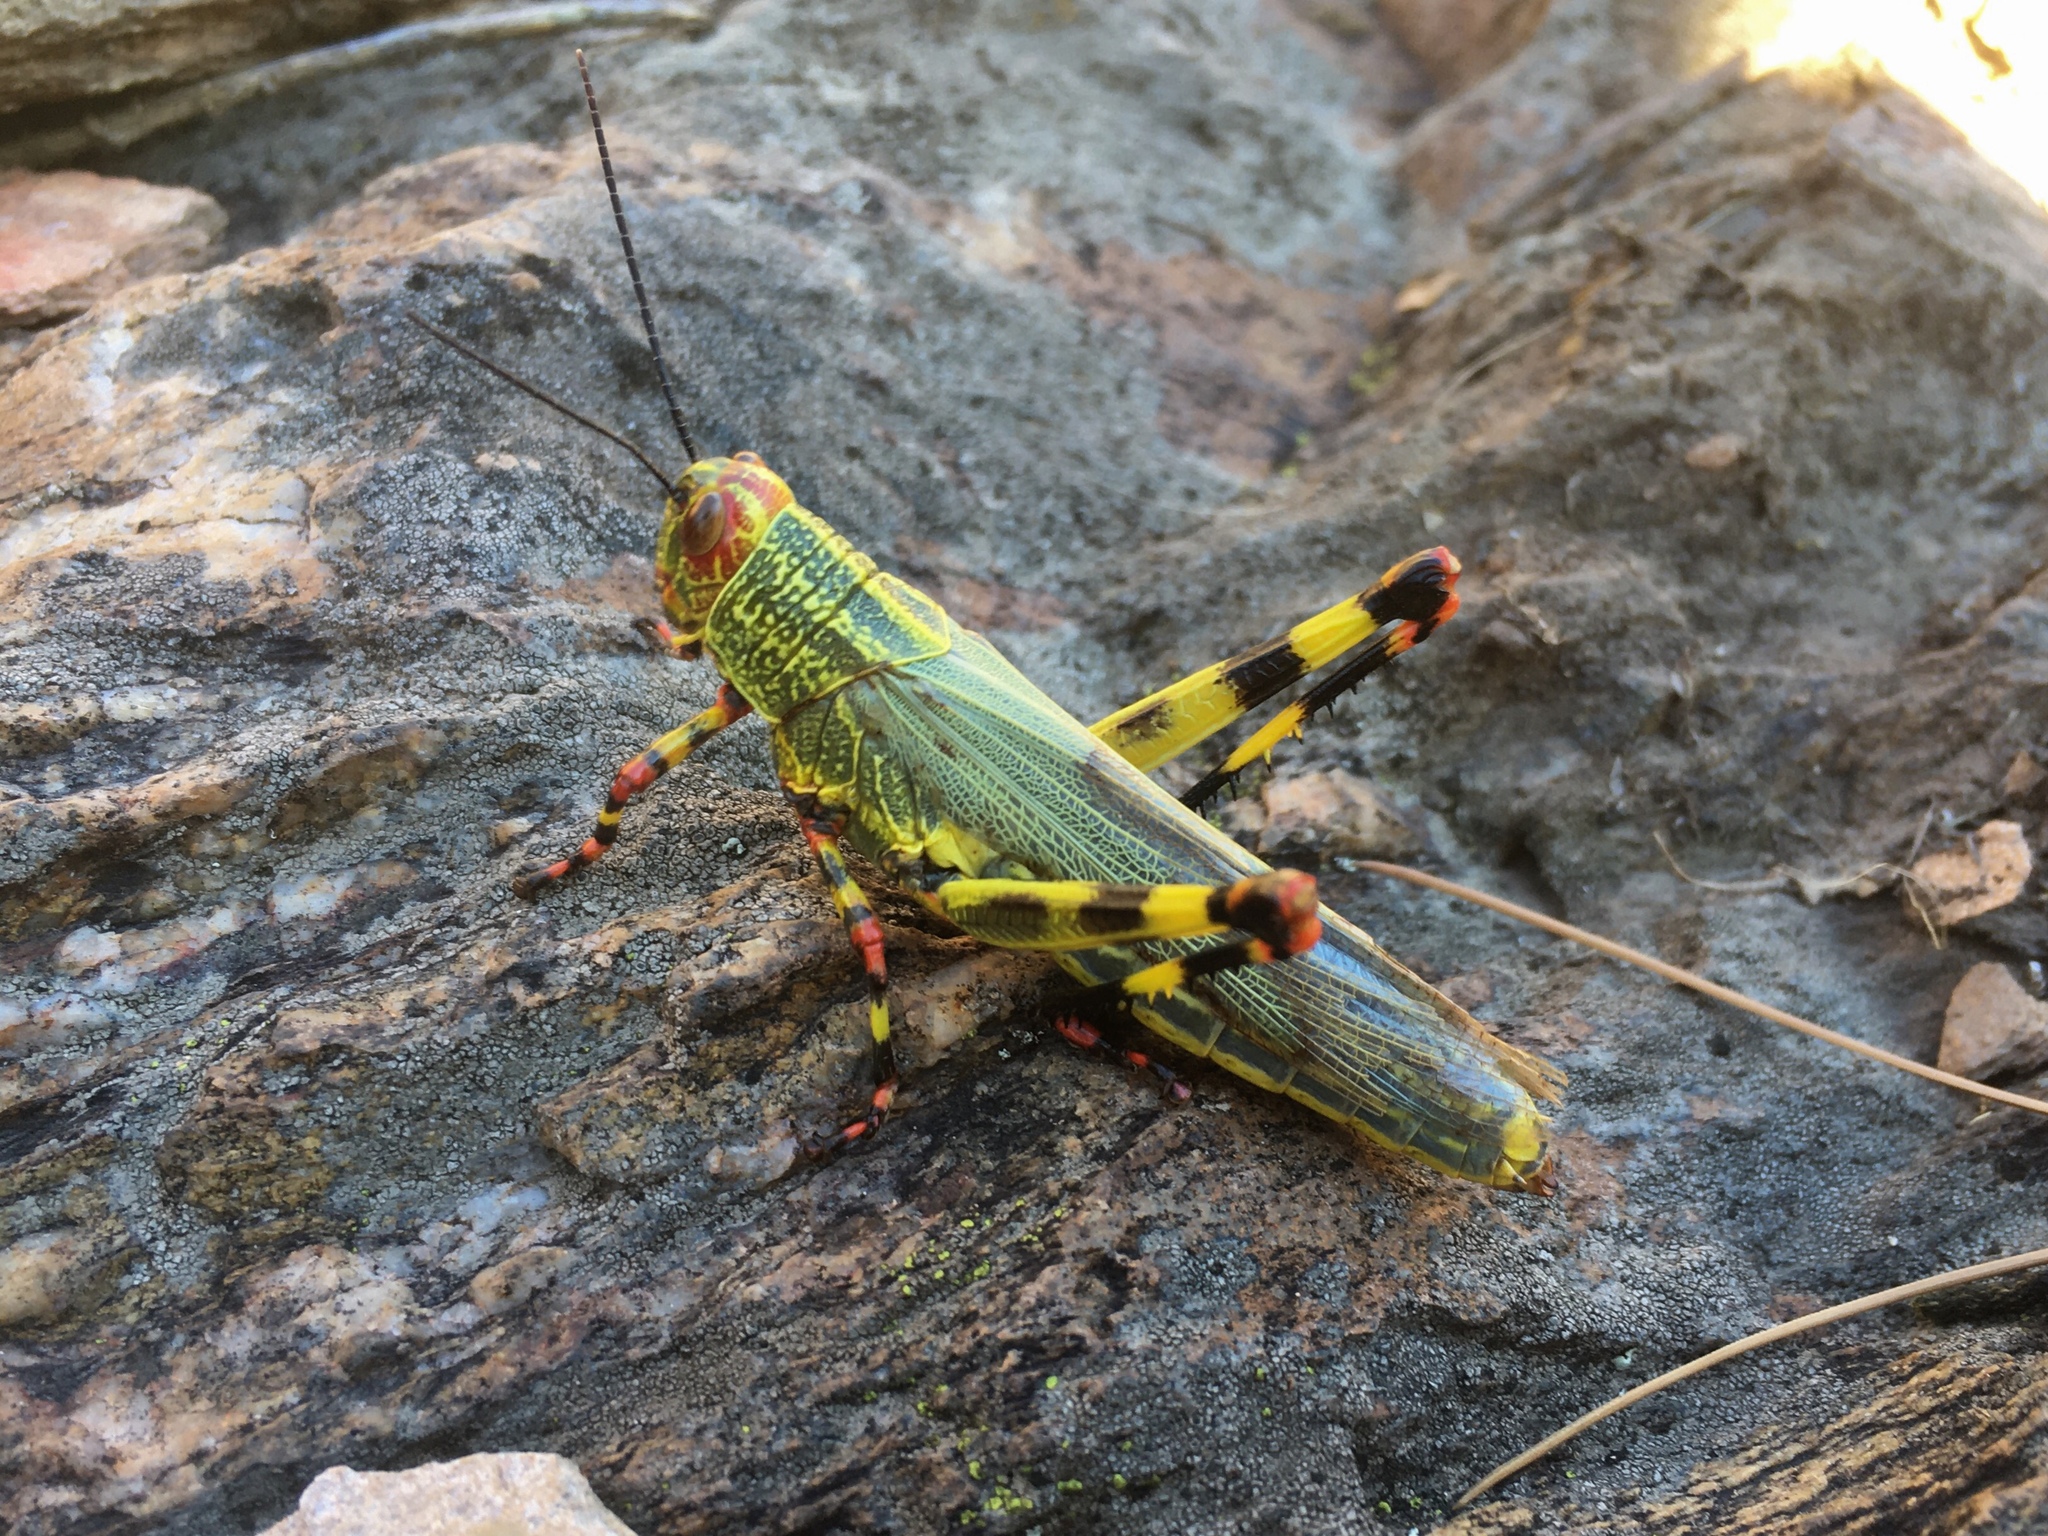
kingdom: Animalia
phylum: Arthropoda
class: Insecta
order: Orthoptera
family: Romaleidae
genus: Zoniopoda
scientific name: Zoniopoda tarsata
